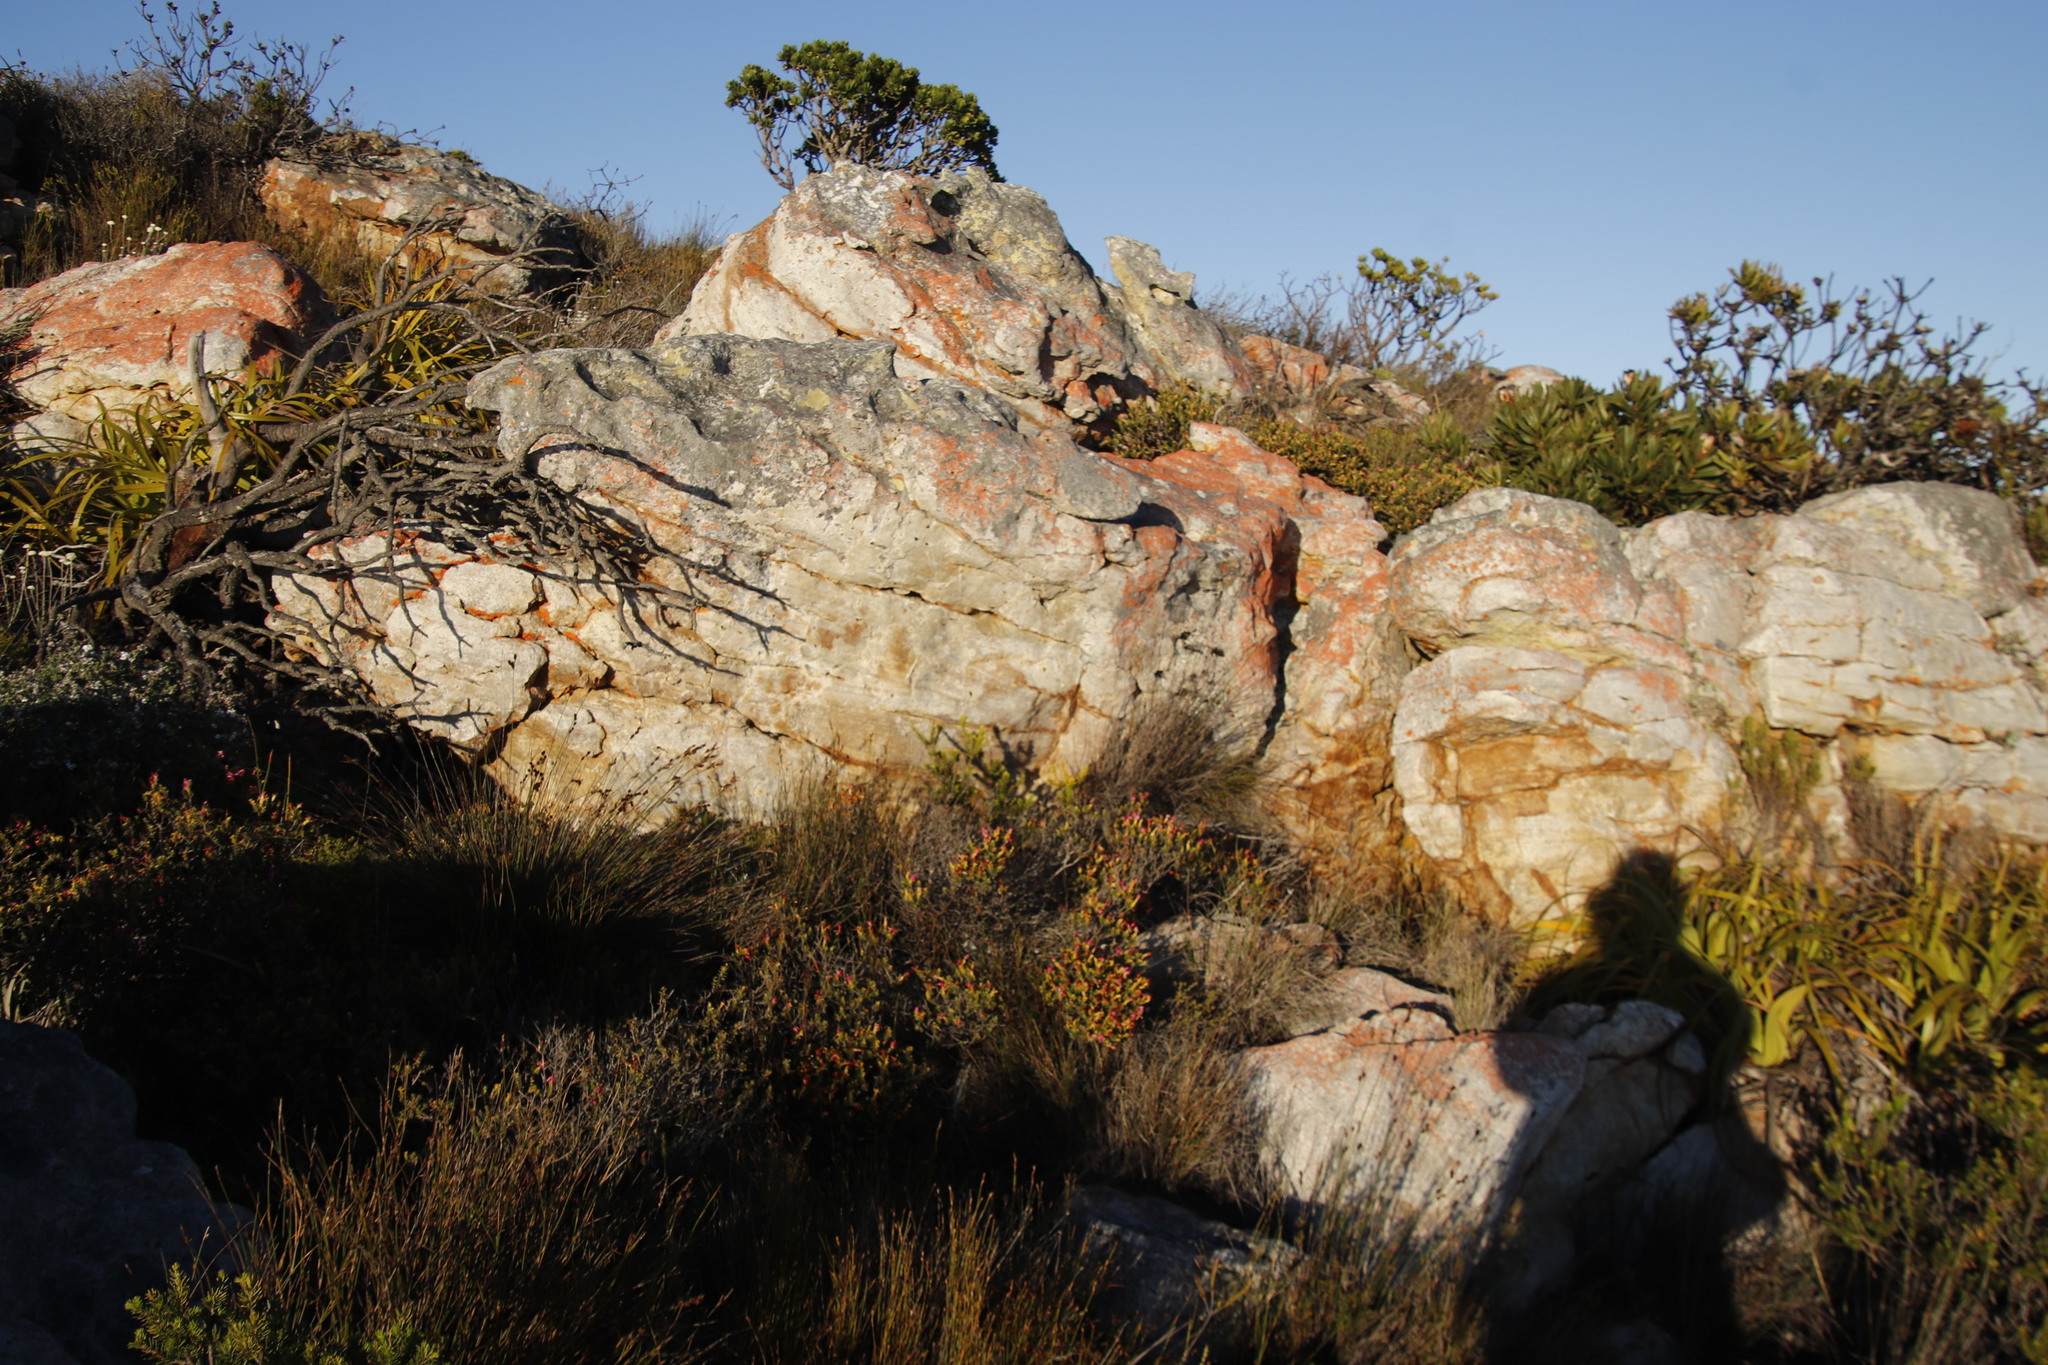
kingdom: Plantae
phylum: Tracheophyta
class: Magnoliopsida
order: Myrtales
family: Penaeaceae
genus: Saltera
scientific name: Saltera sarcocolla
